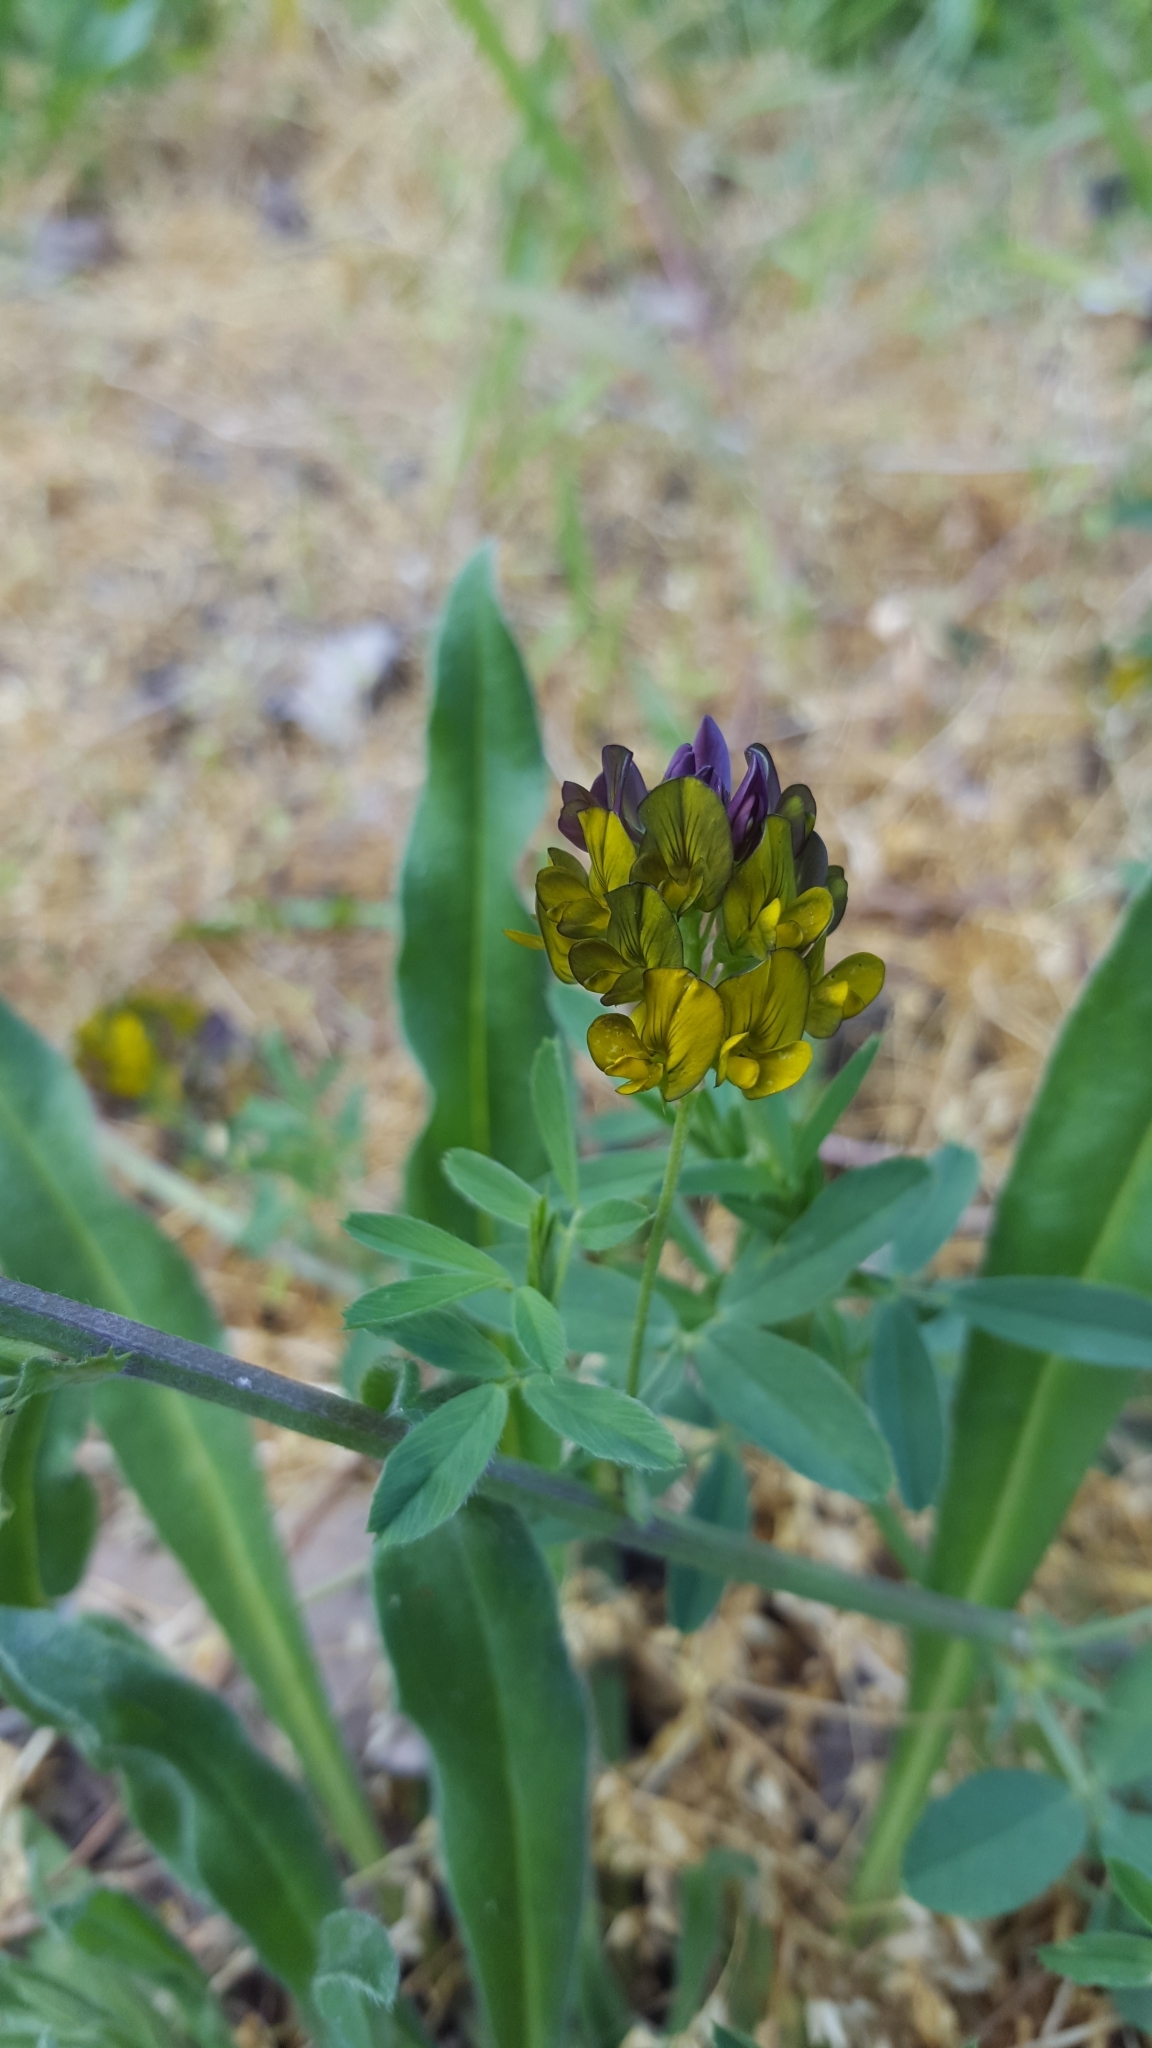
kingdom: Plantae
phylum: Tracheophyta
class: Magnoliopsida
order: Fabales
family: Fabaceae
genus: Medicago
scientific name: Medicago varia
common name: Sand lucerne
